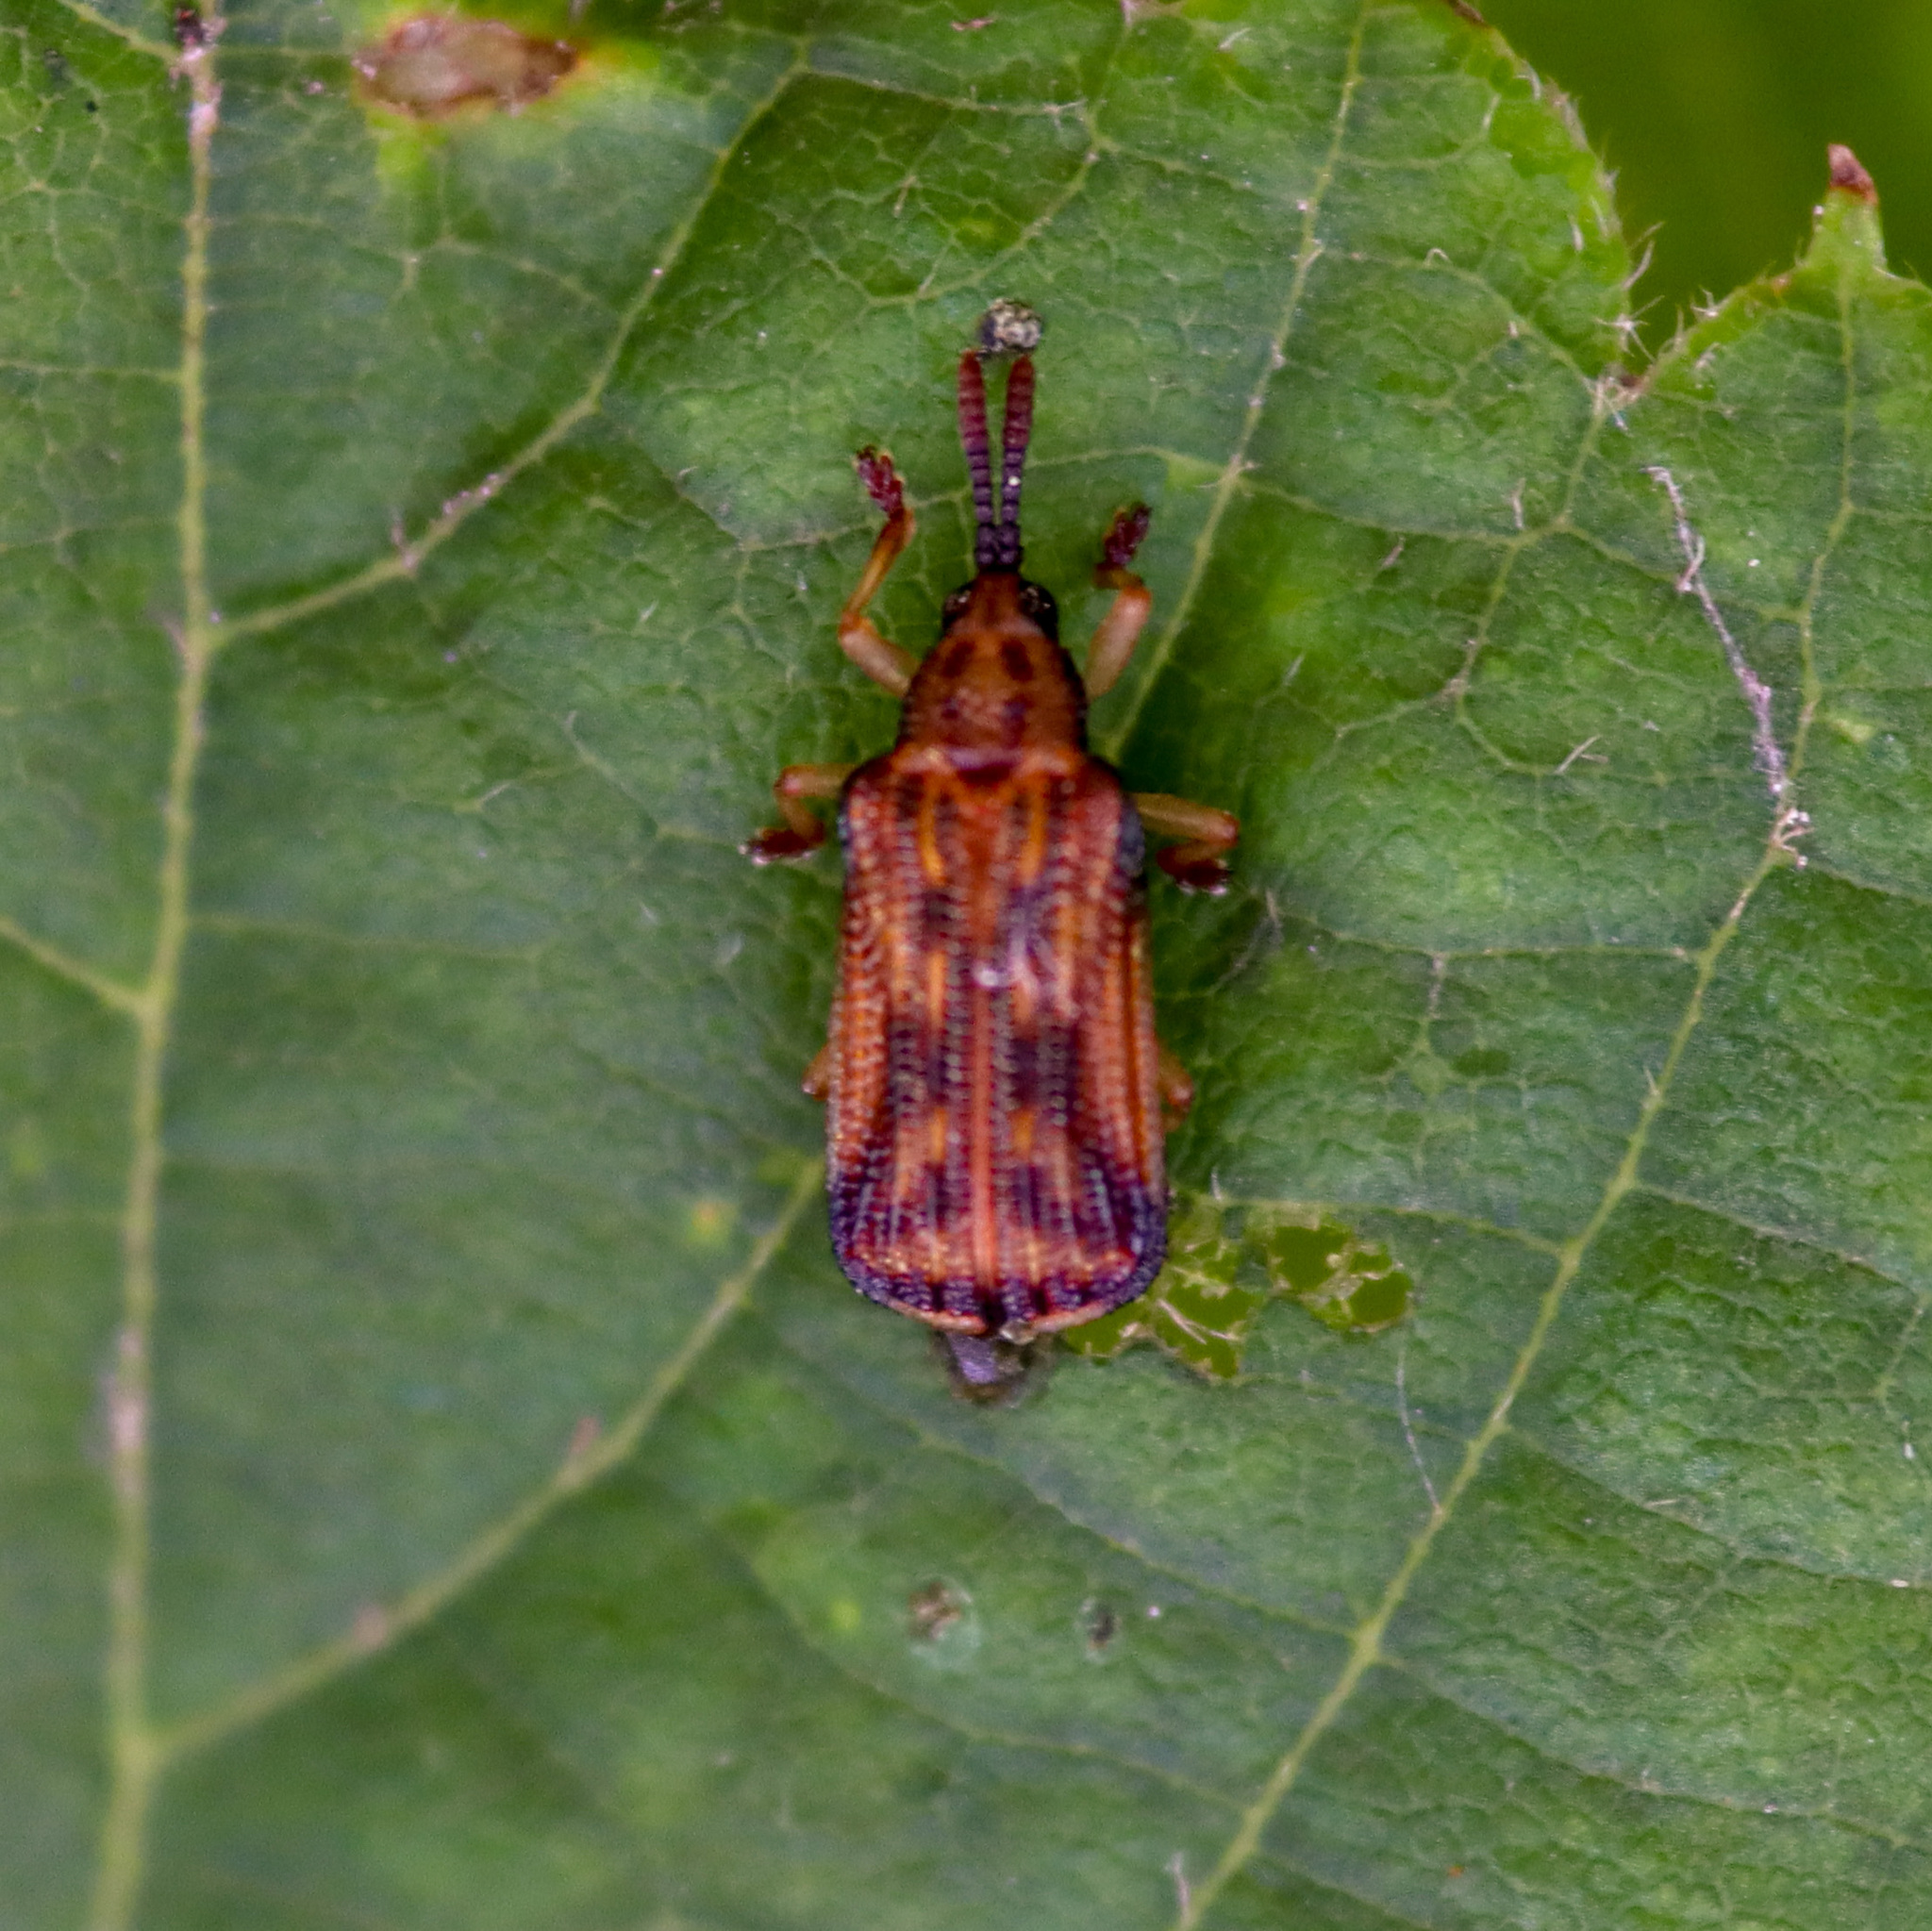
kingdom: Animalia
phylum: Arthropoda
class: Insecta
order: Coleoptera
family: Chrysomelidae
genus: Baliosus
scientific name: Baliosus nervosus
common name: Basswood leaf miner
